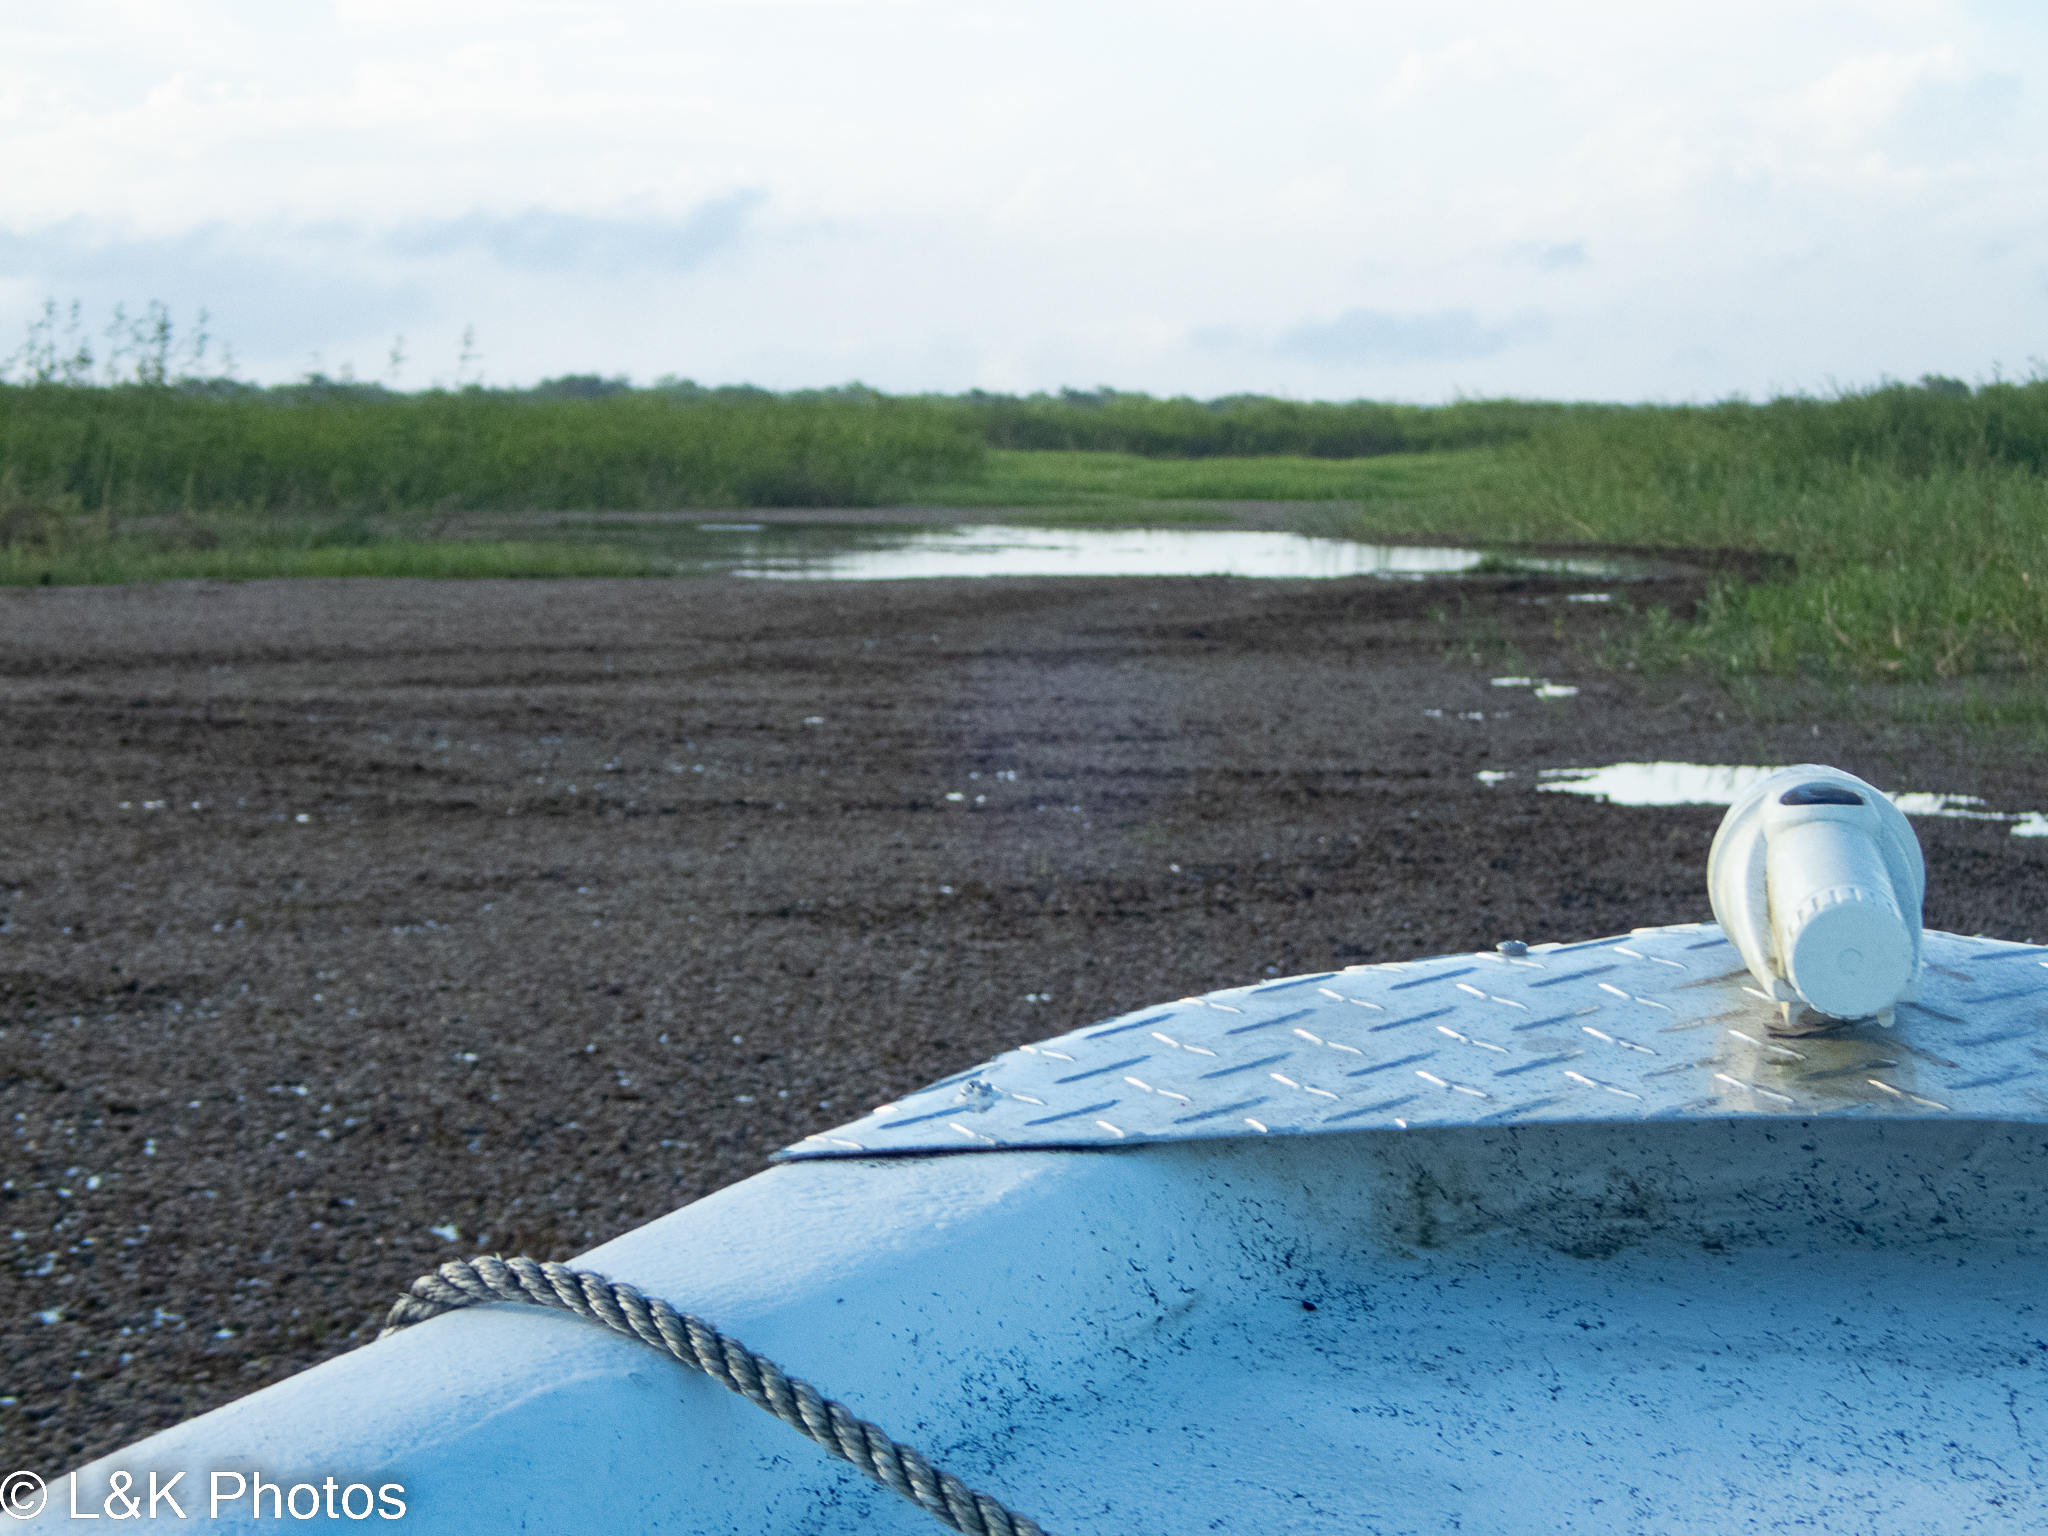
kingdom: Plantae
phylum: Tracheophyta
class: Polypodiopsida
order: Salviniales
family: Salviniaceae
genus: Salvinia
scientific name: Salvinia molesta
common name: Kariba weed
